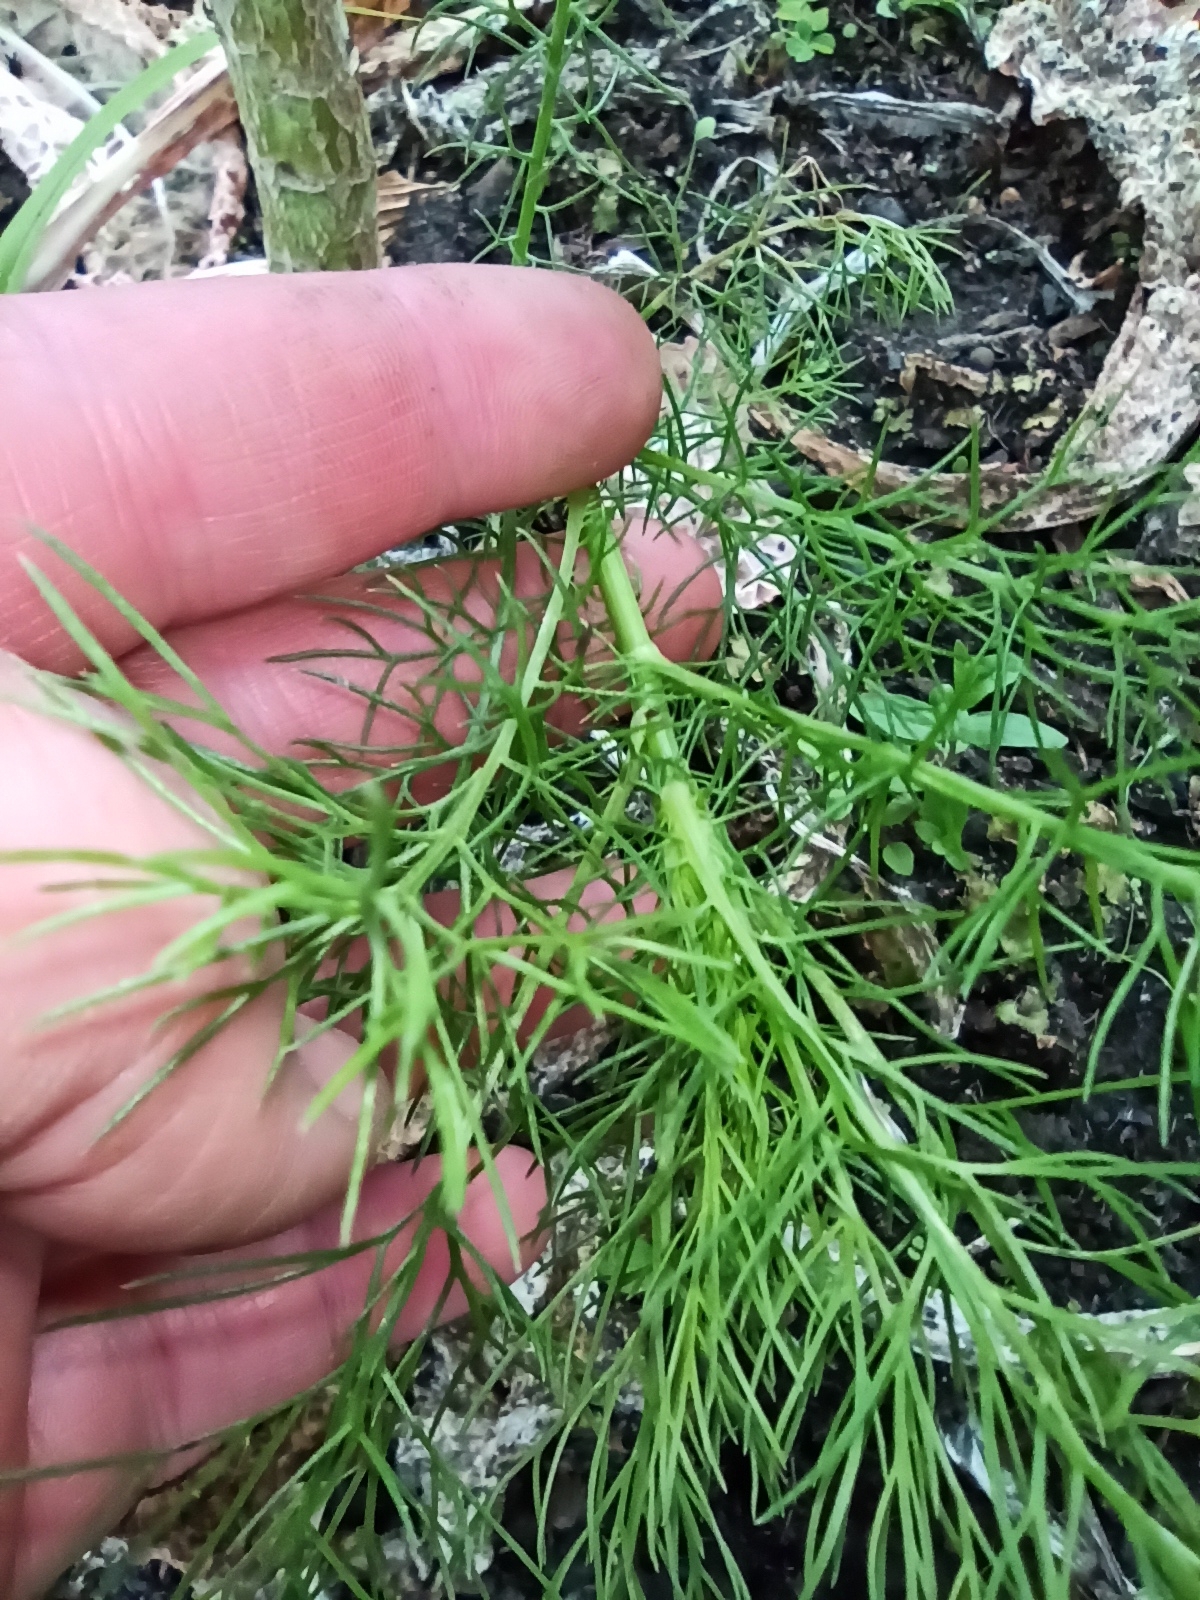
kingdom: Plantae
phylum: Tracheophyta
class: Magnoliopsida
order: Apiales
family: Apiaceae
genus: Foeniculum
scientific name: Foeniculum vulgare
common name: Fennel
